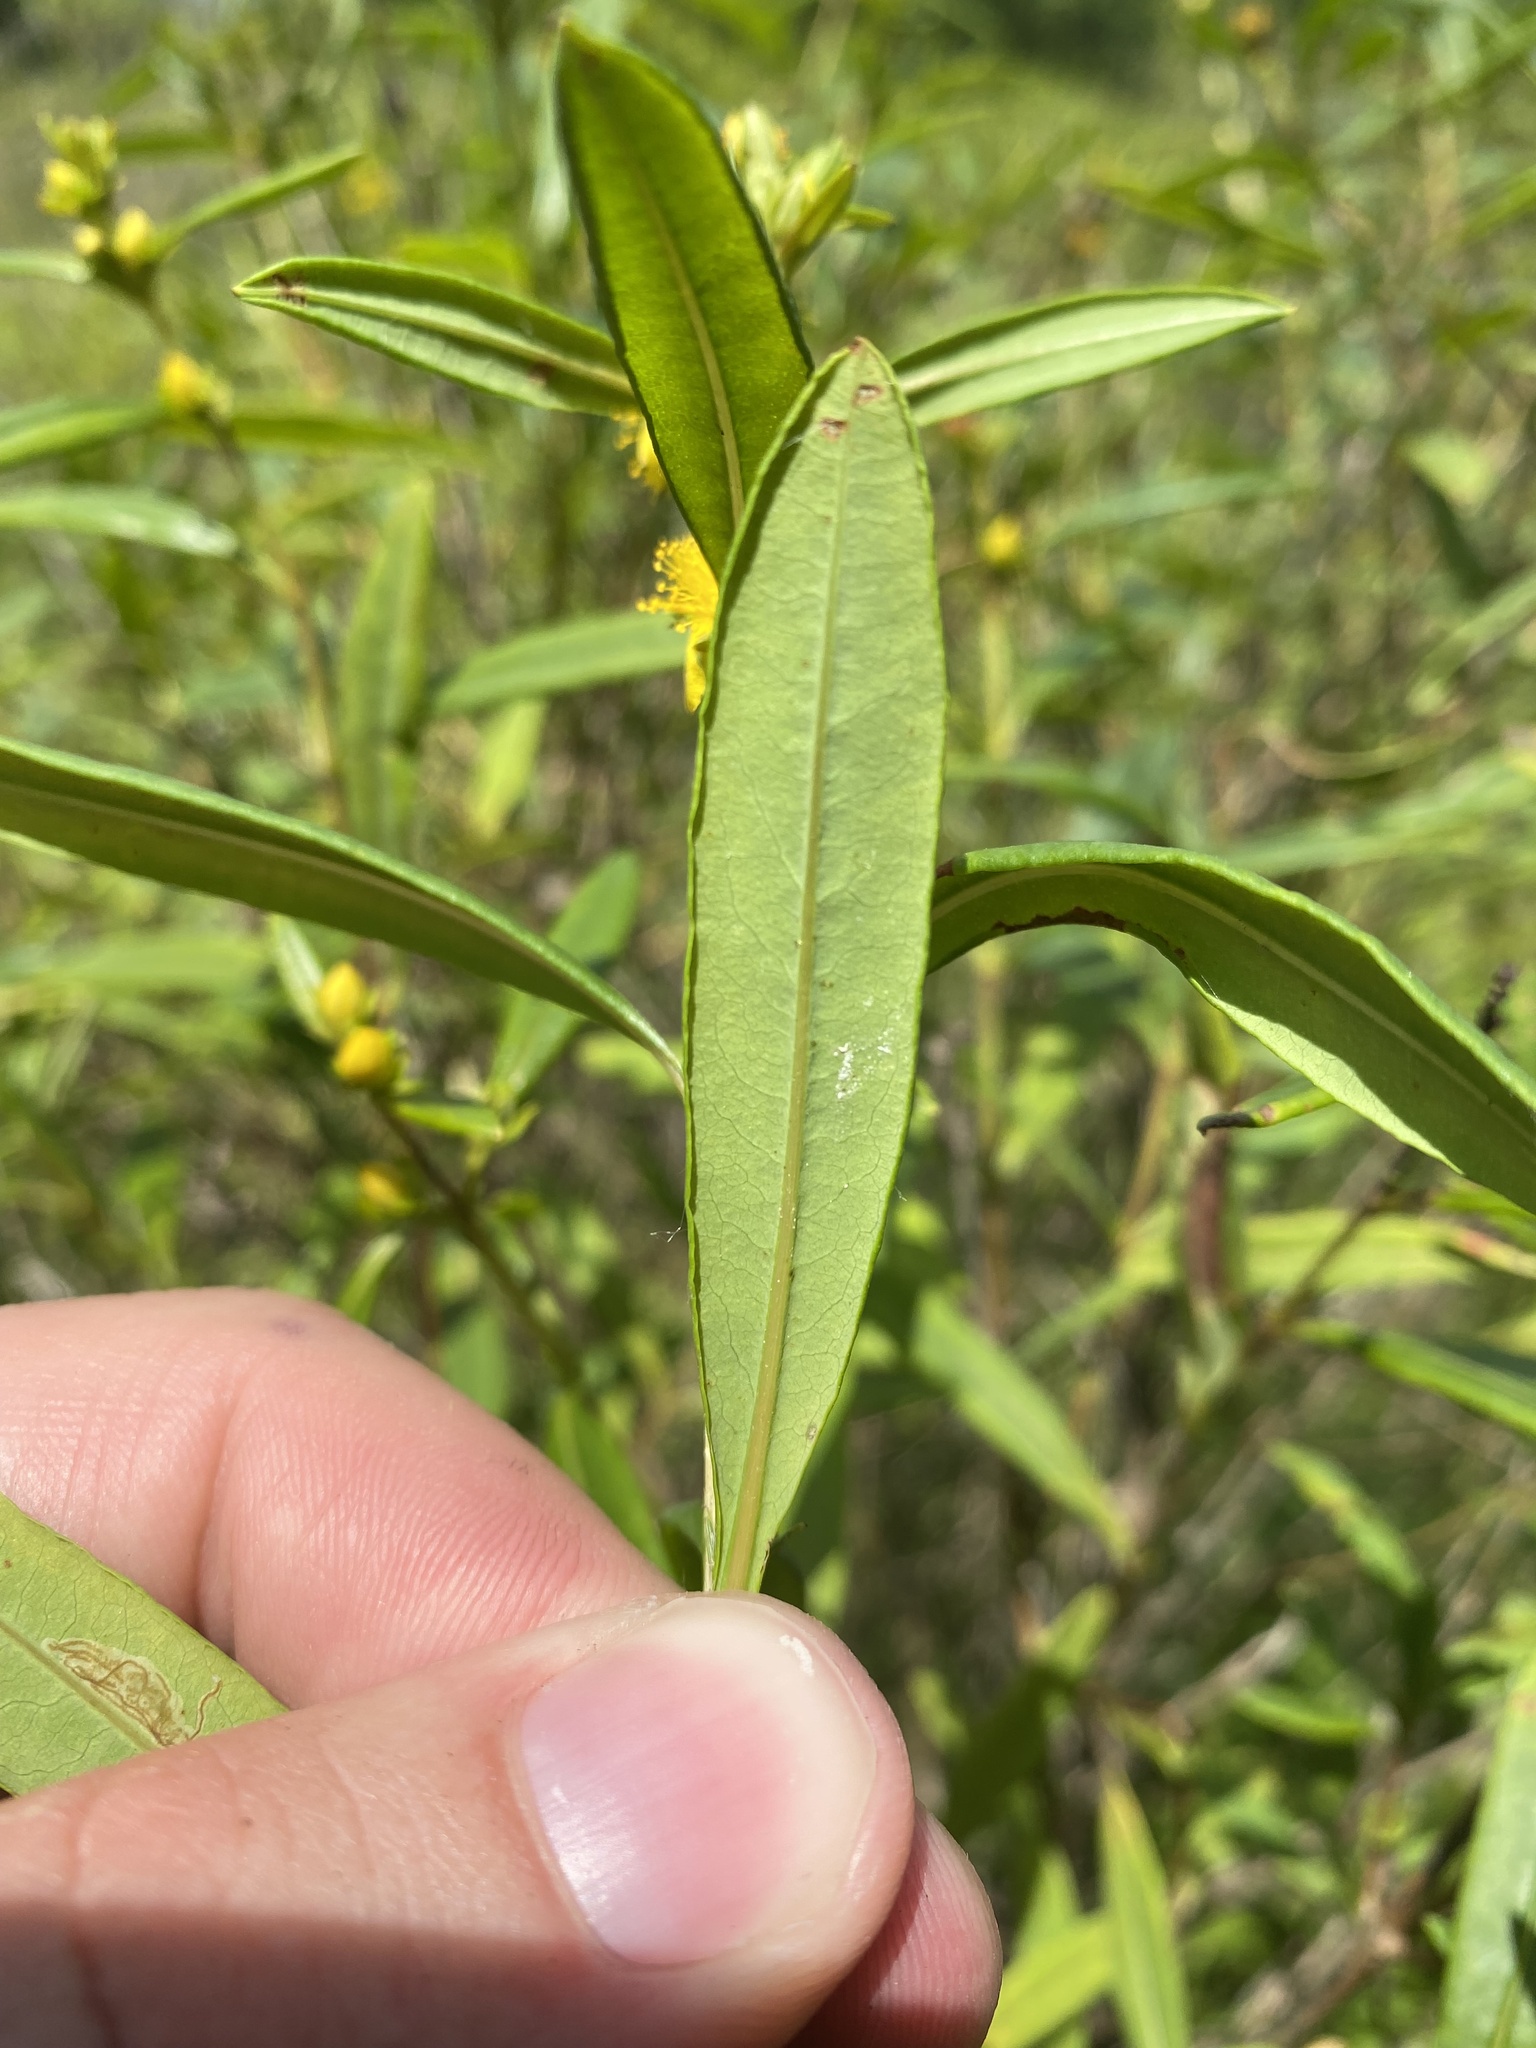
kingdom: Plantae
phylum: Tracheophyta
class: Magnoliopsida
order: Malpighiales
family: Hypericaceae
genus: Hypericum
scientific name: Hypericum prolificum
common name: Shrubby st. john's-wort
